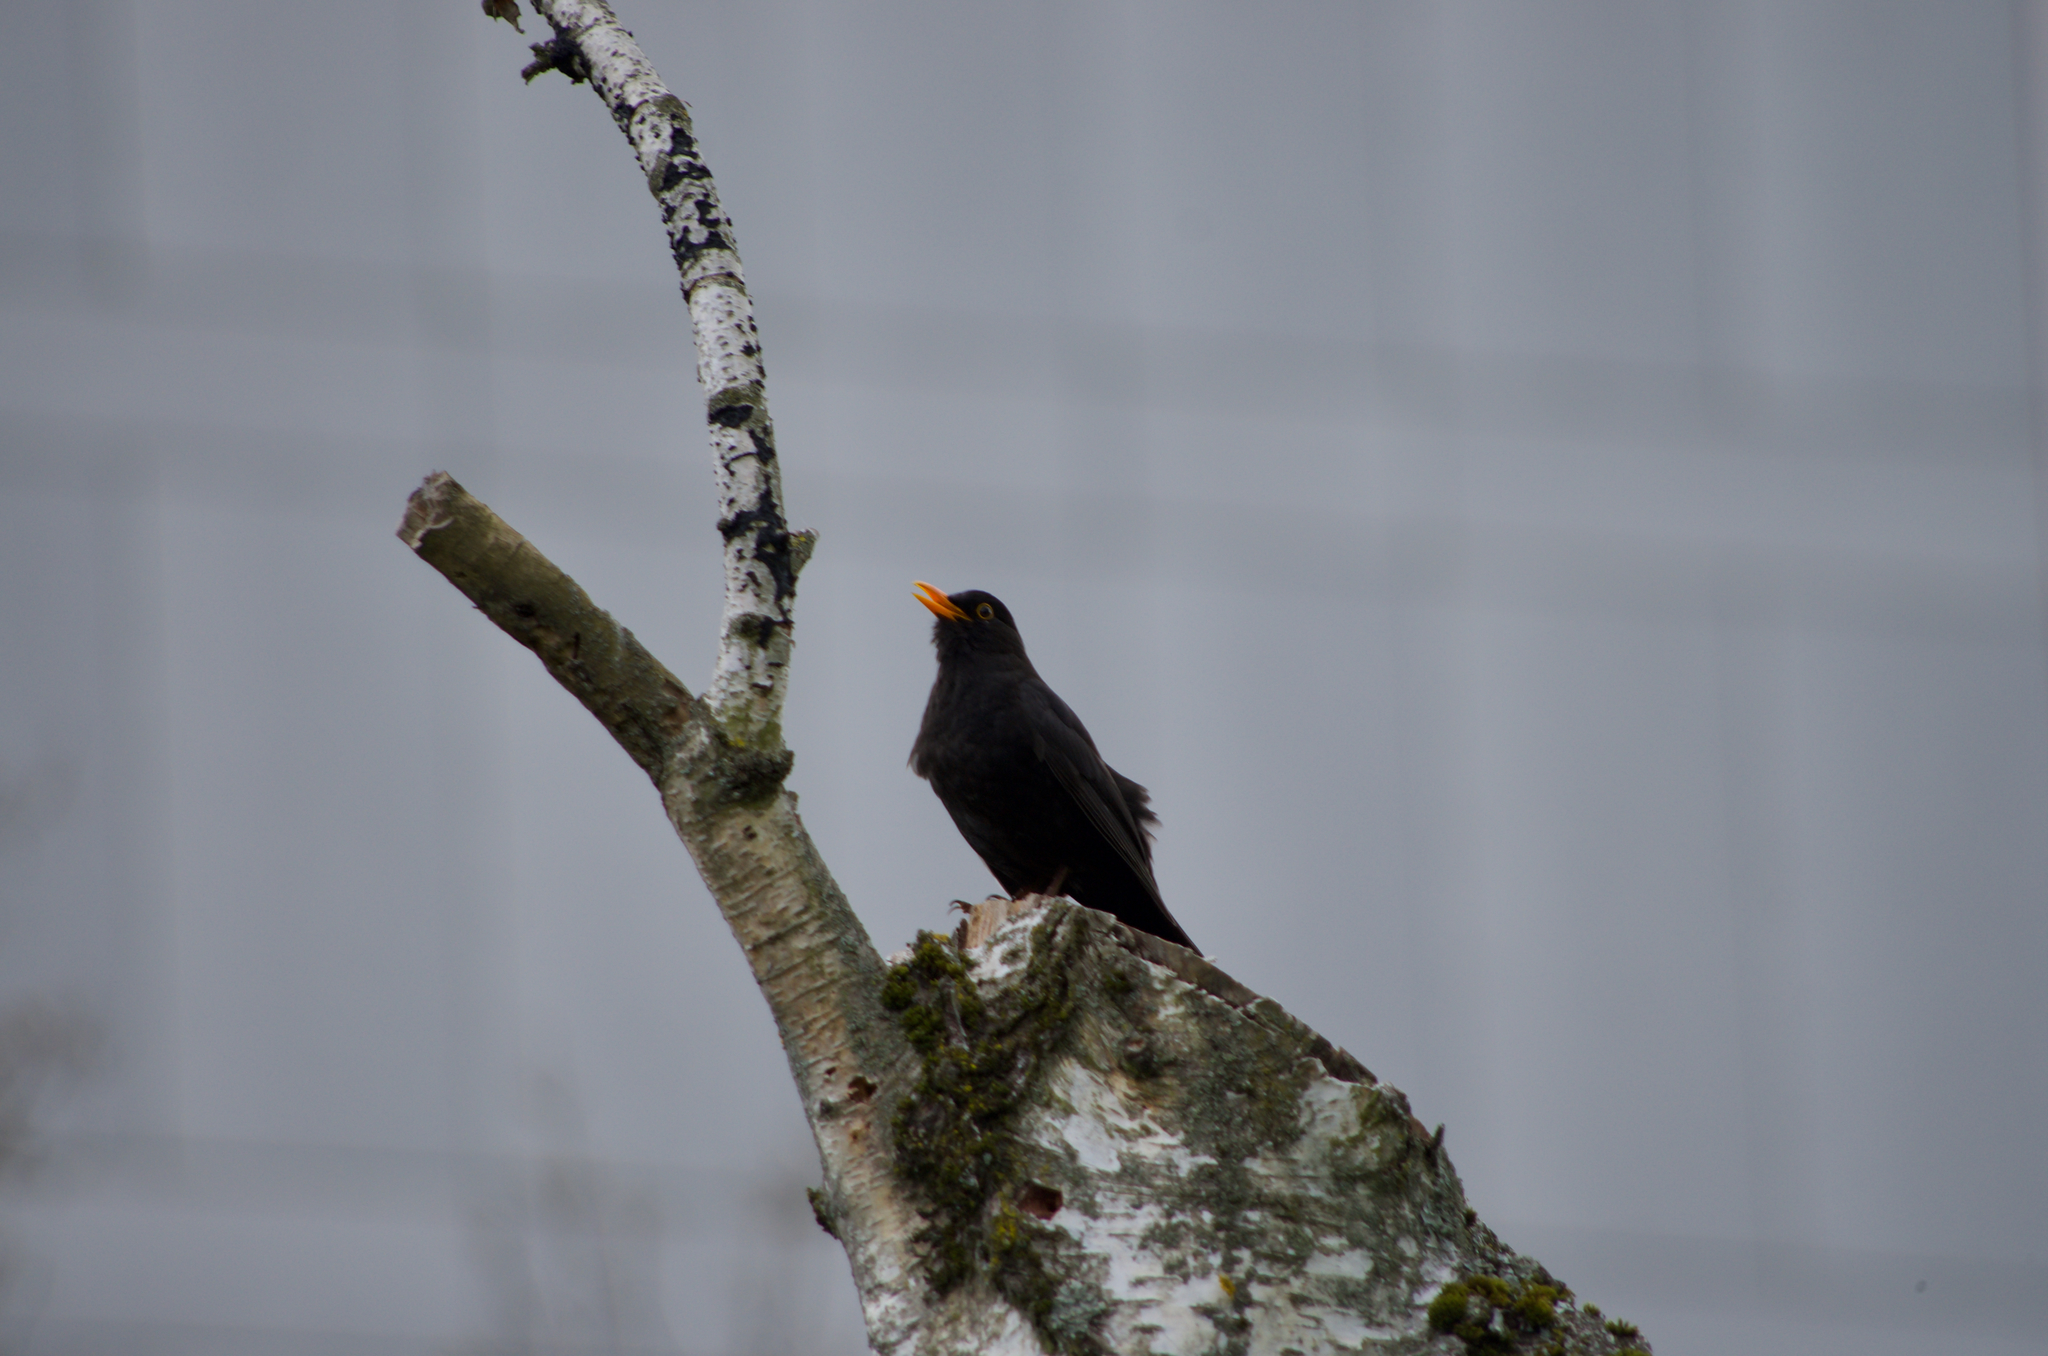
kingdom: Animalia
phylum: Chordata
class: Aves
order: Passeriformes
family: Turdidae
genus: Turdus
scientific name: Turdus merula
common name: Common blackbird
